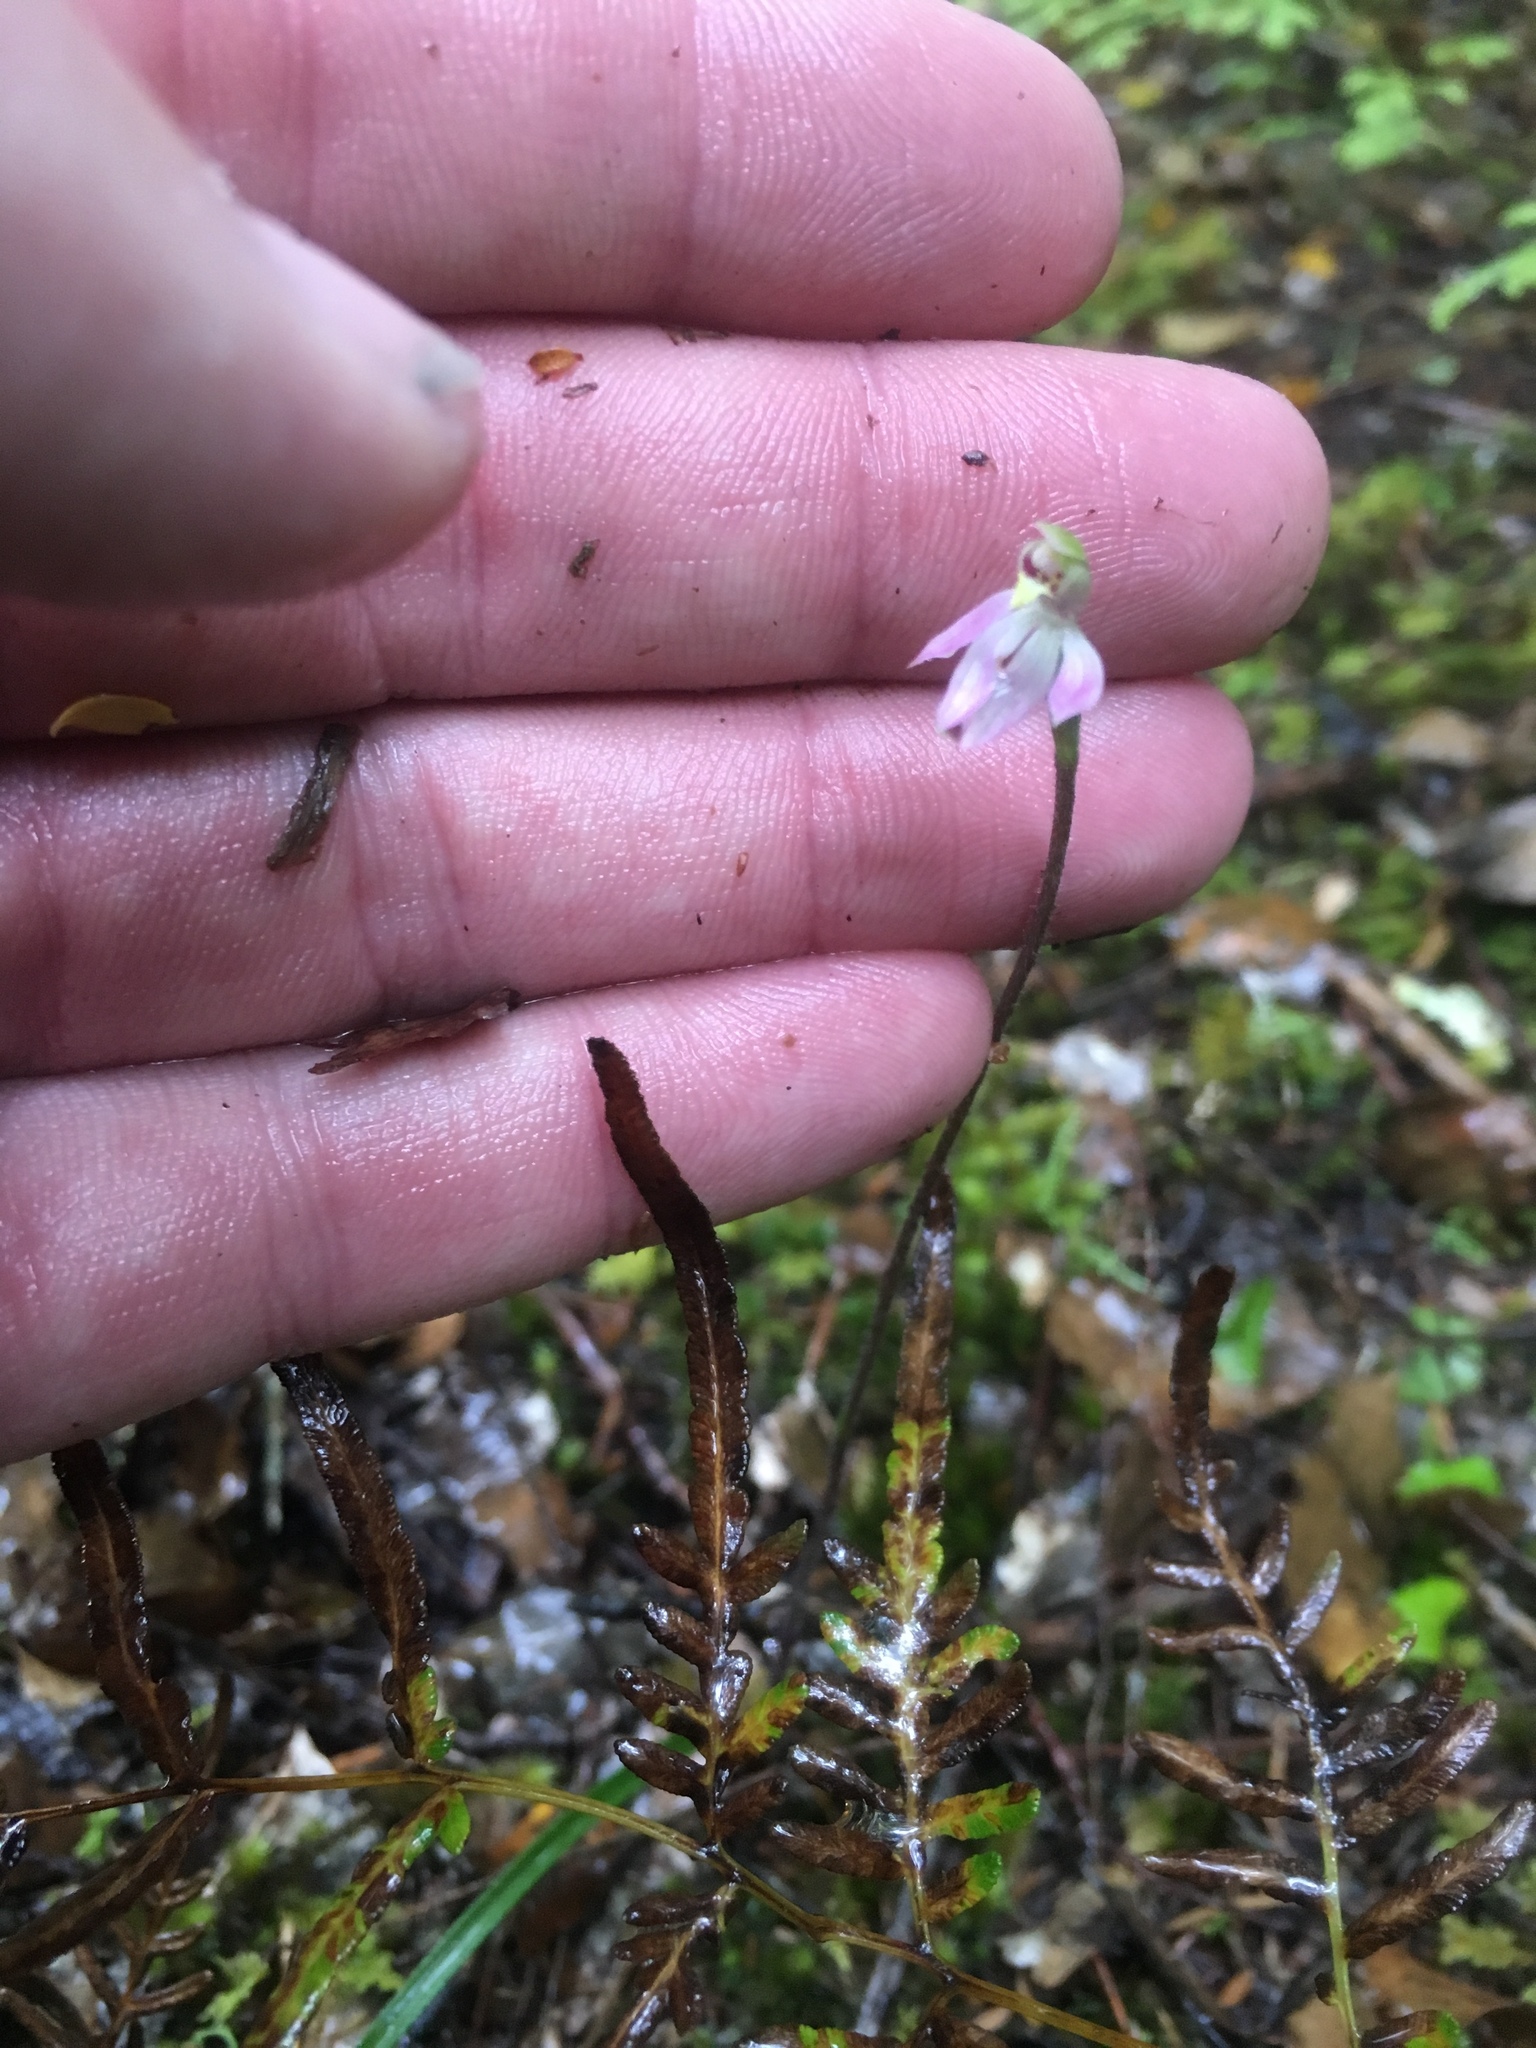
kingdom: Plantae
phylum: Tracheophyta
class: Liliopsida
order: Asparagales
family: Orchidaceae
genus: Caladenia
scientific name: Caladenia variegata
